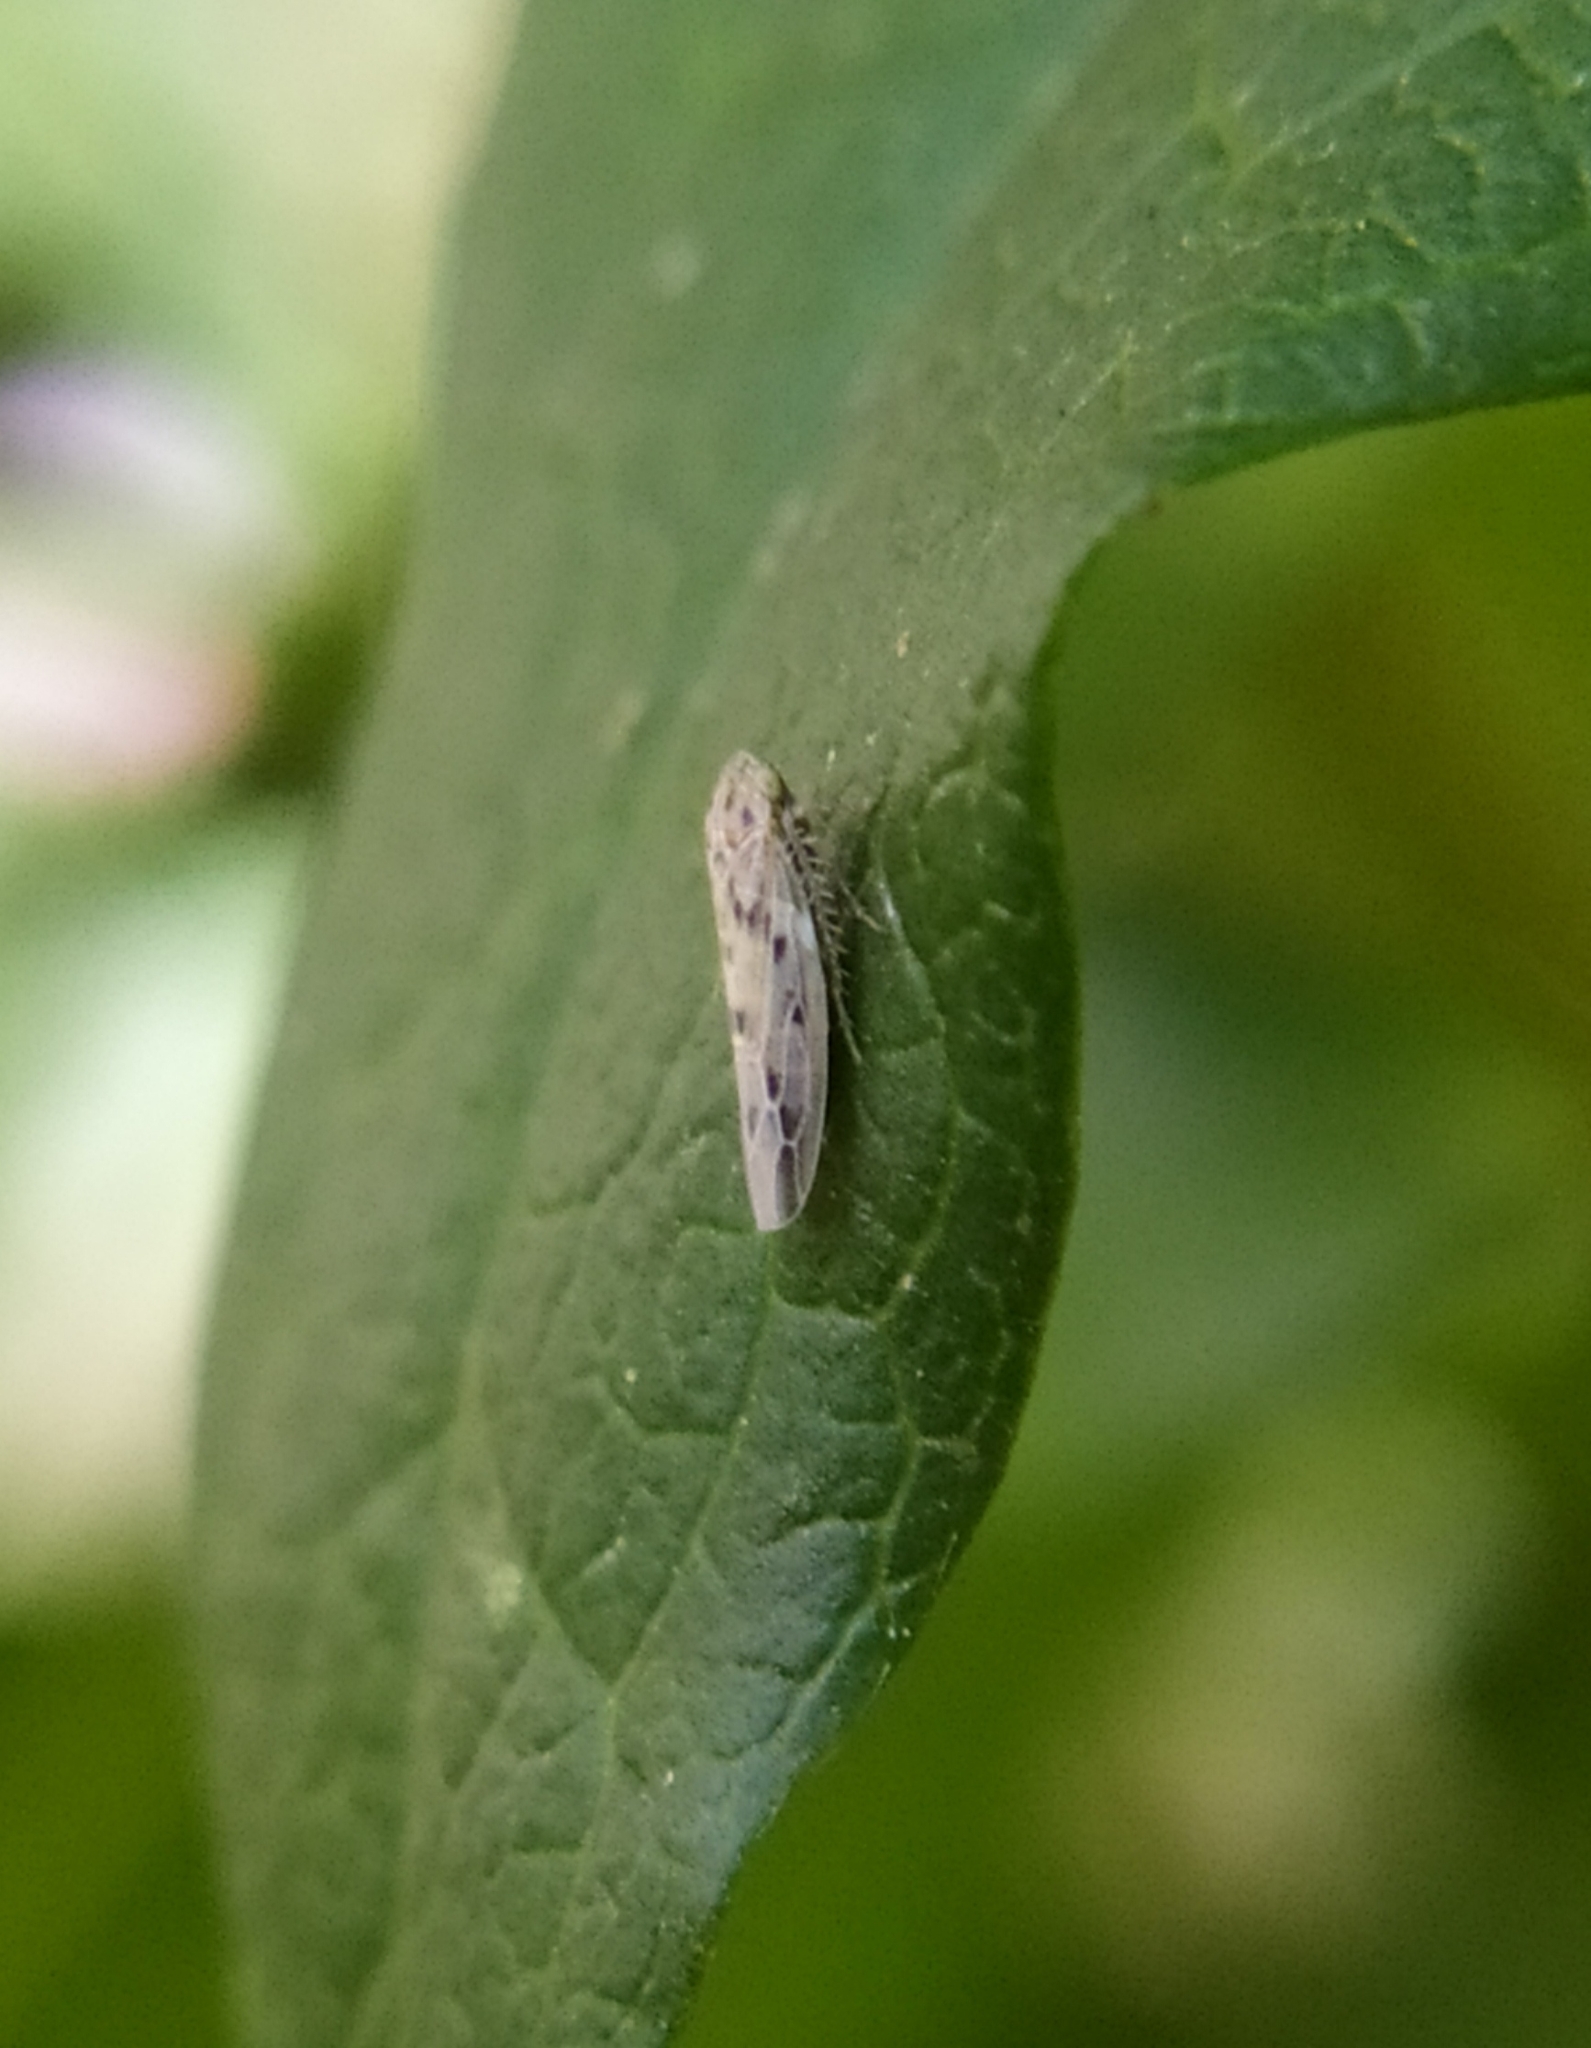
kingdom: Animalia
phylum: Arthropoda
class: Insecta
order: Hemiptera
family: Cicadellidae
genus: Balclutha
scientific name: Balclutha
